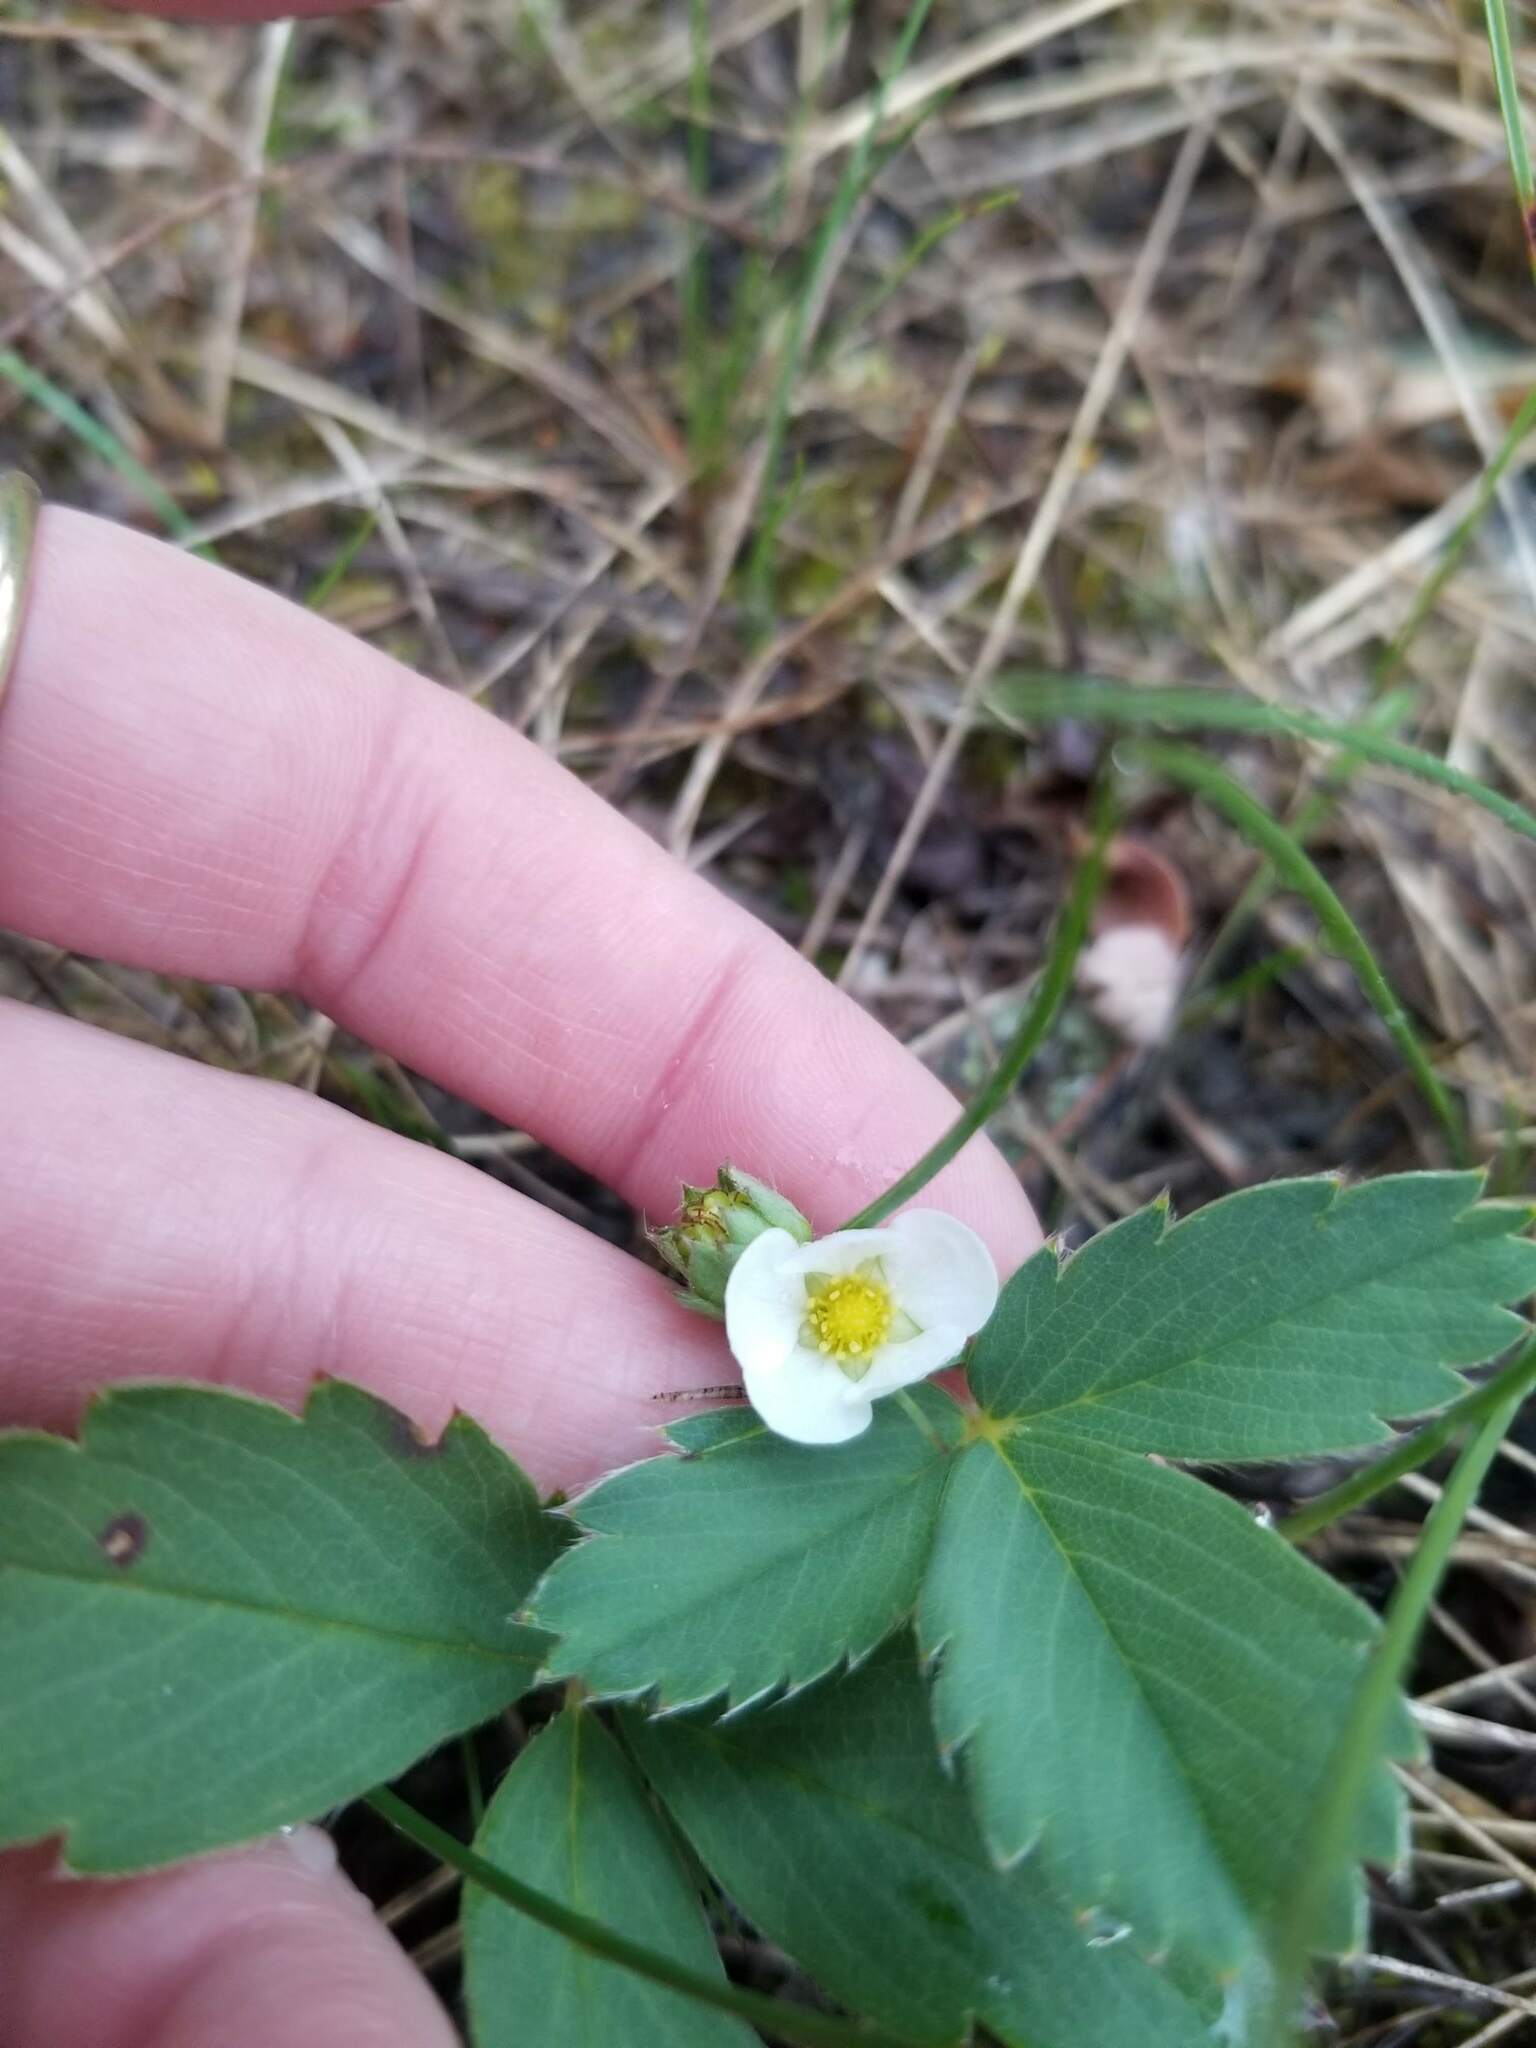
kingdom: Plantae
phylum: Tracheophyta
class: Magnoliopsida
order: Rosales
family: Rosaceae
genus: Fragaria
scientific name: Fragaria virginiana
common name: Thickleaved wild strawberry
